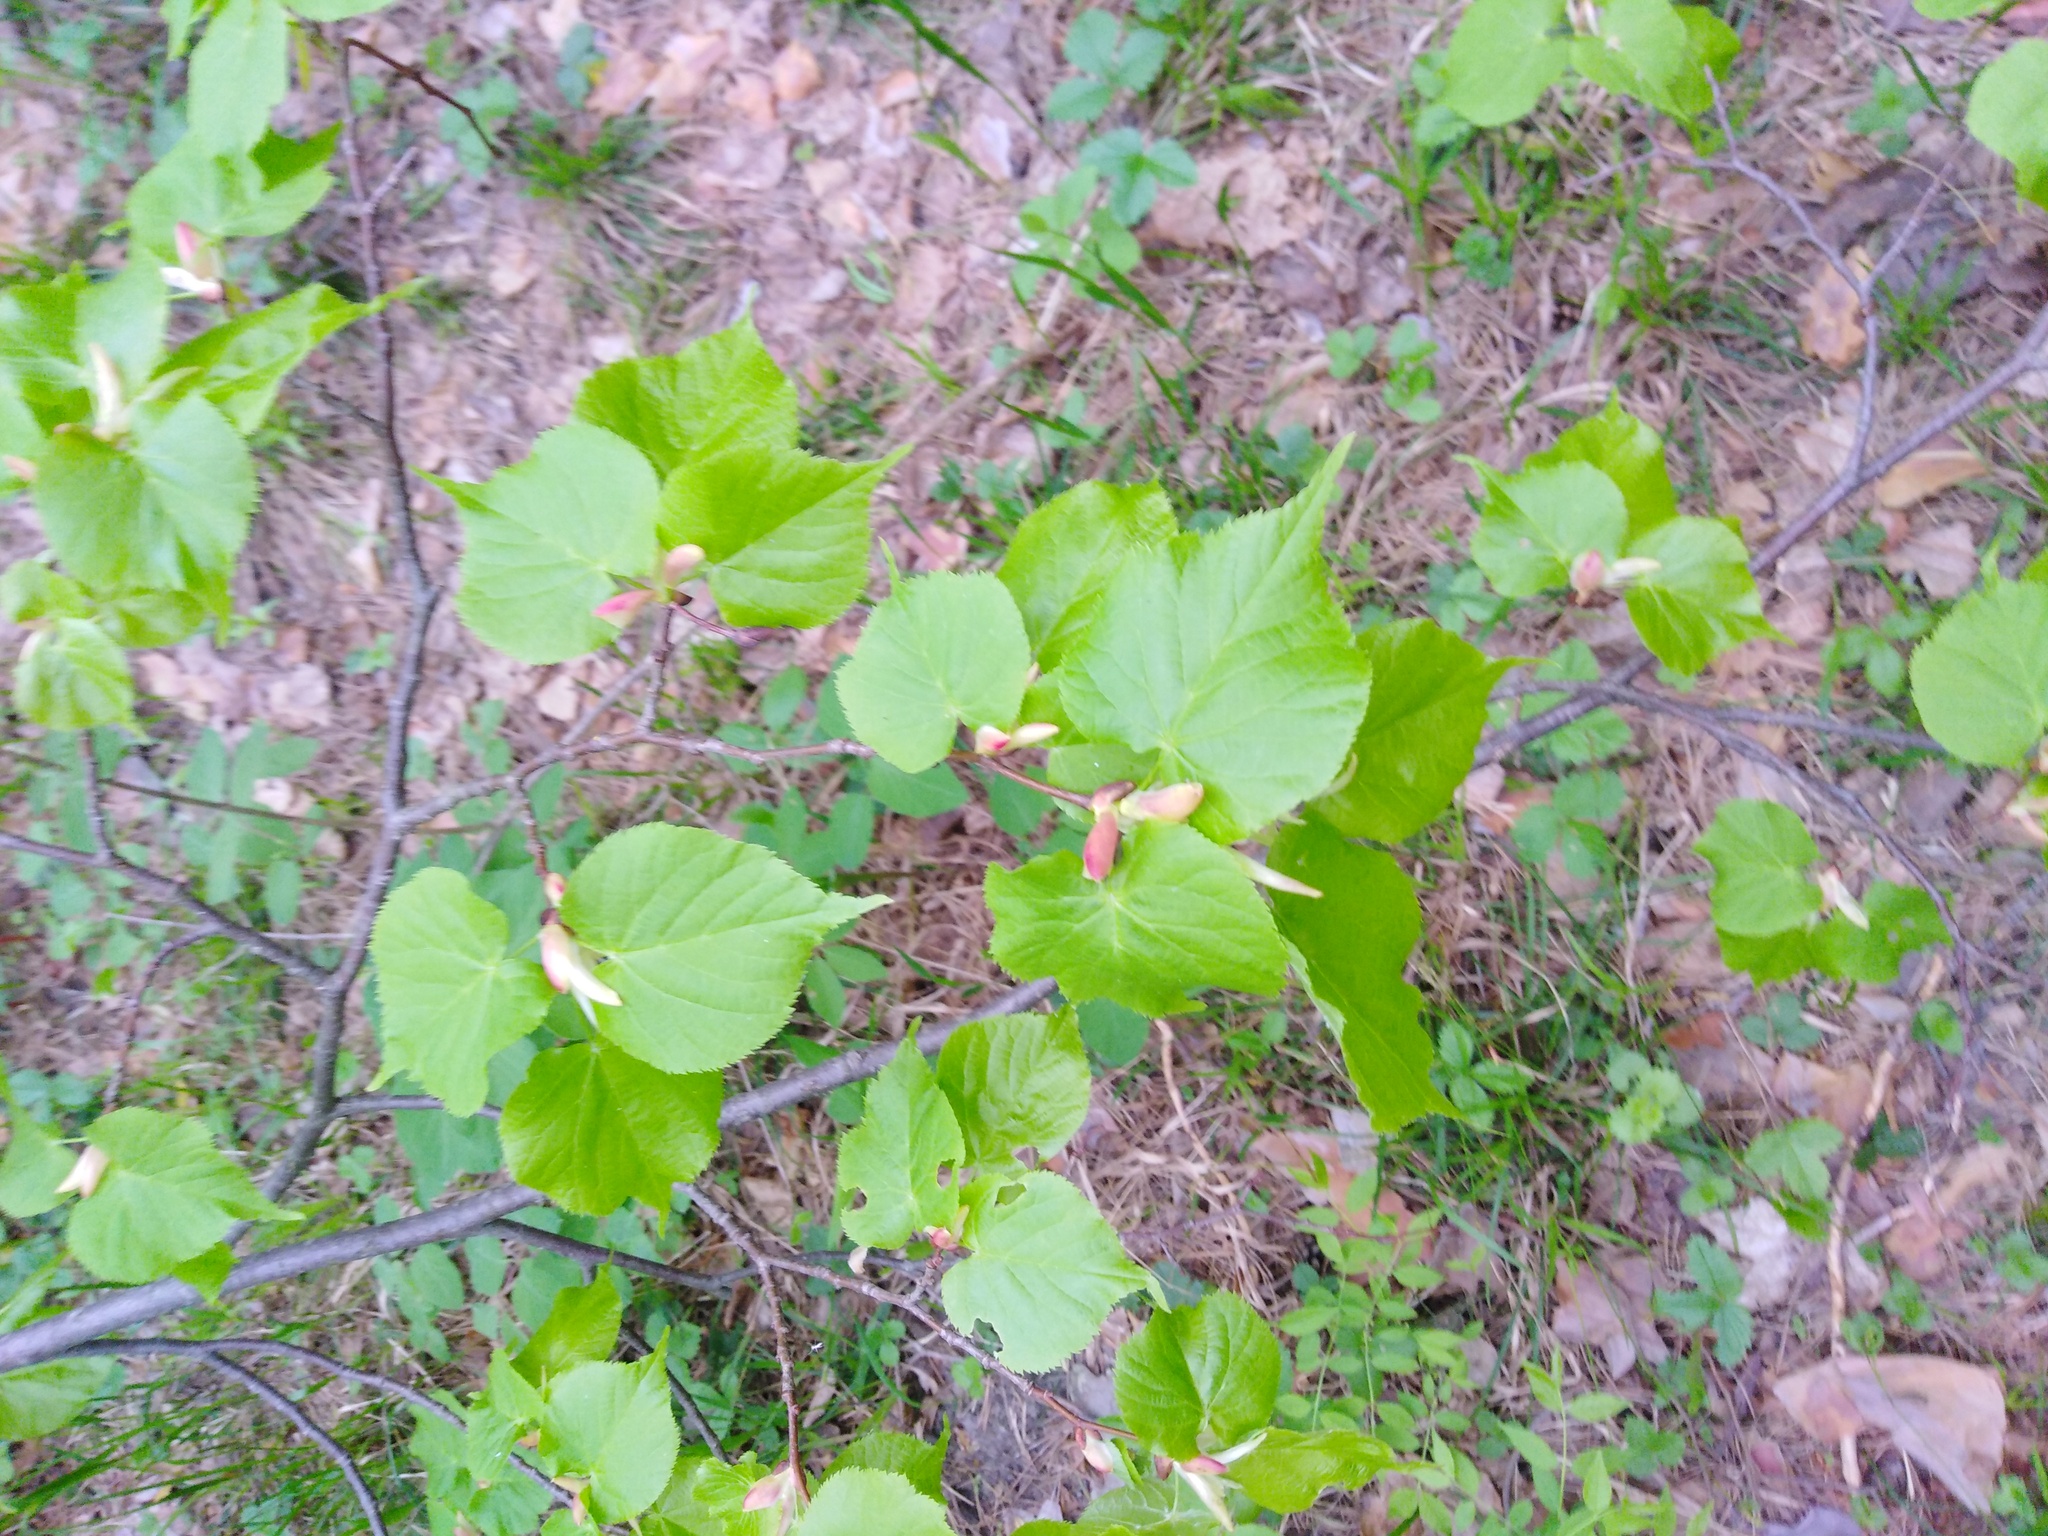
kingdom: Plantae
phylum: Tracheophyta
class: Magnoliopsida
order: Malvales
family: Malvaceae
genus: Tilia
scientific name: Tilia cordata
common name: Small-leaved lime
